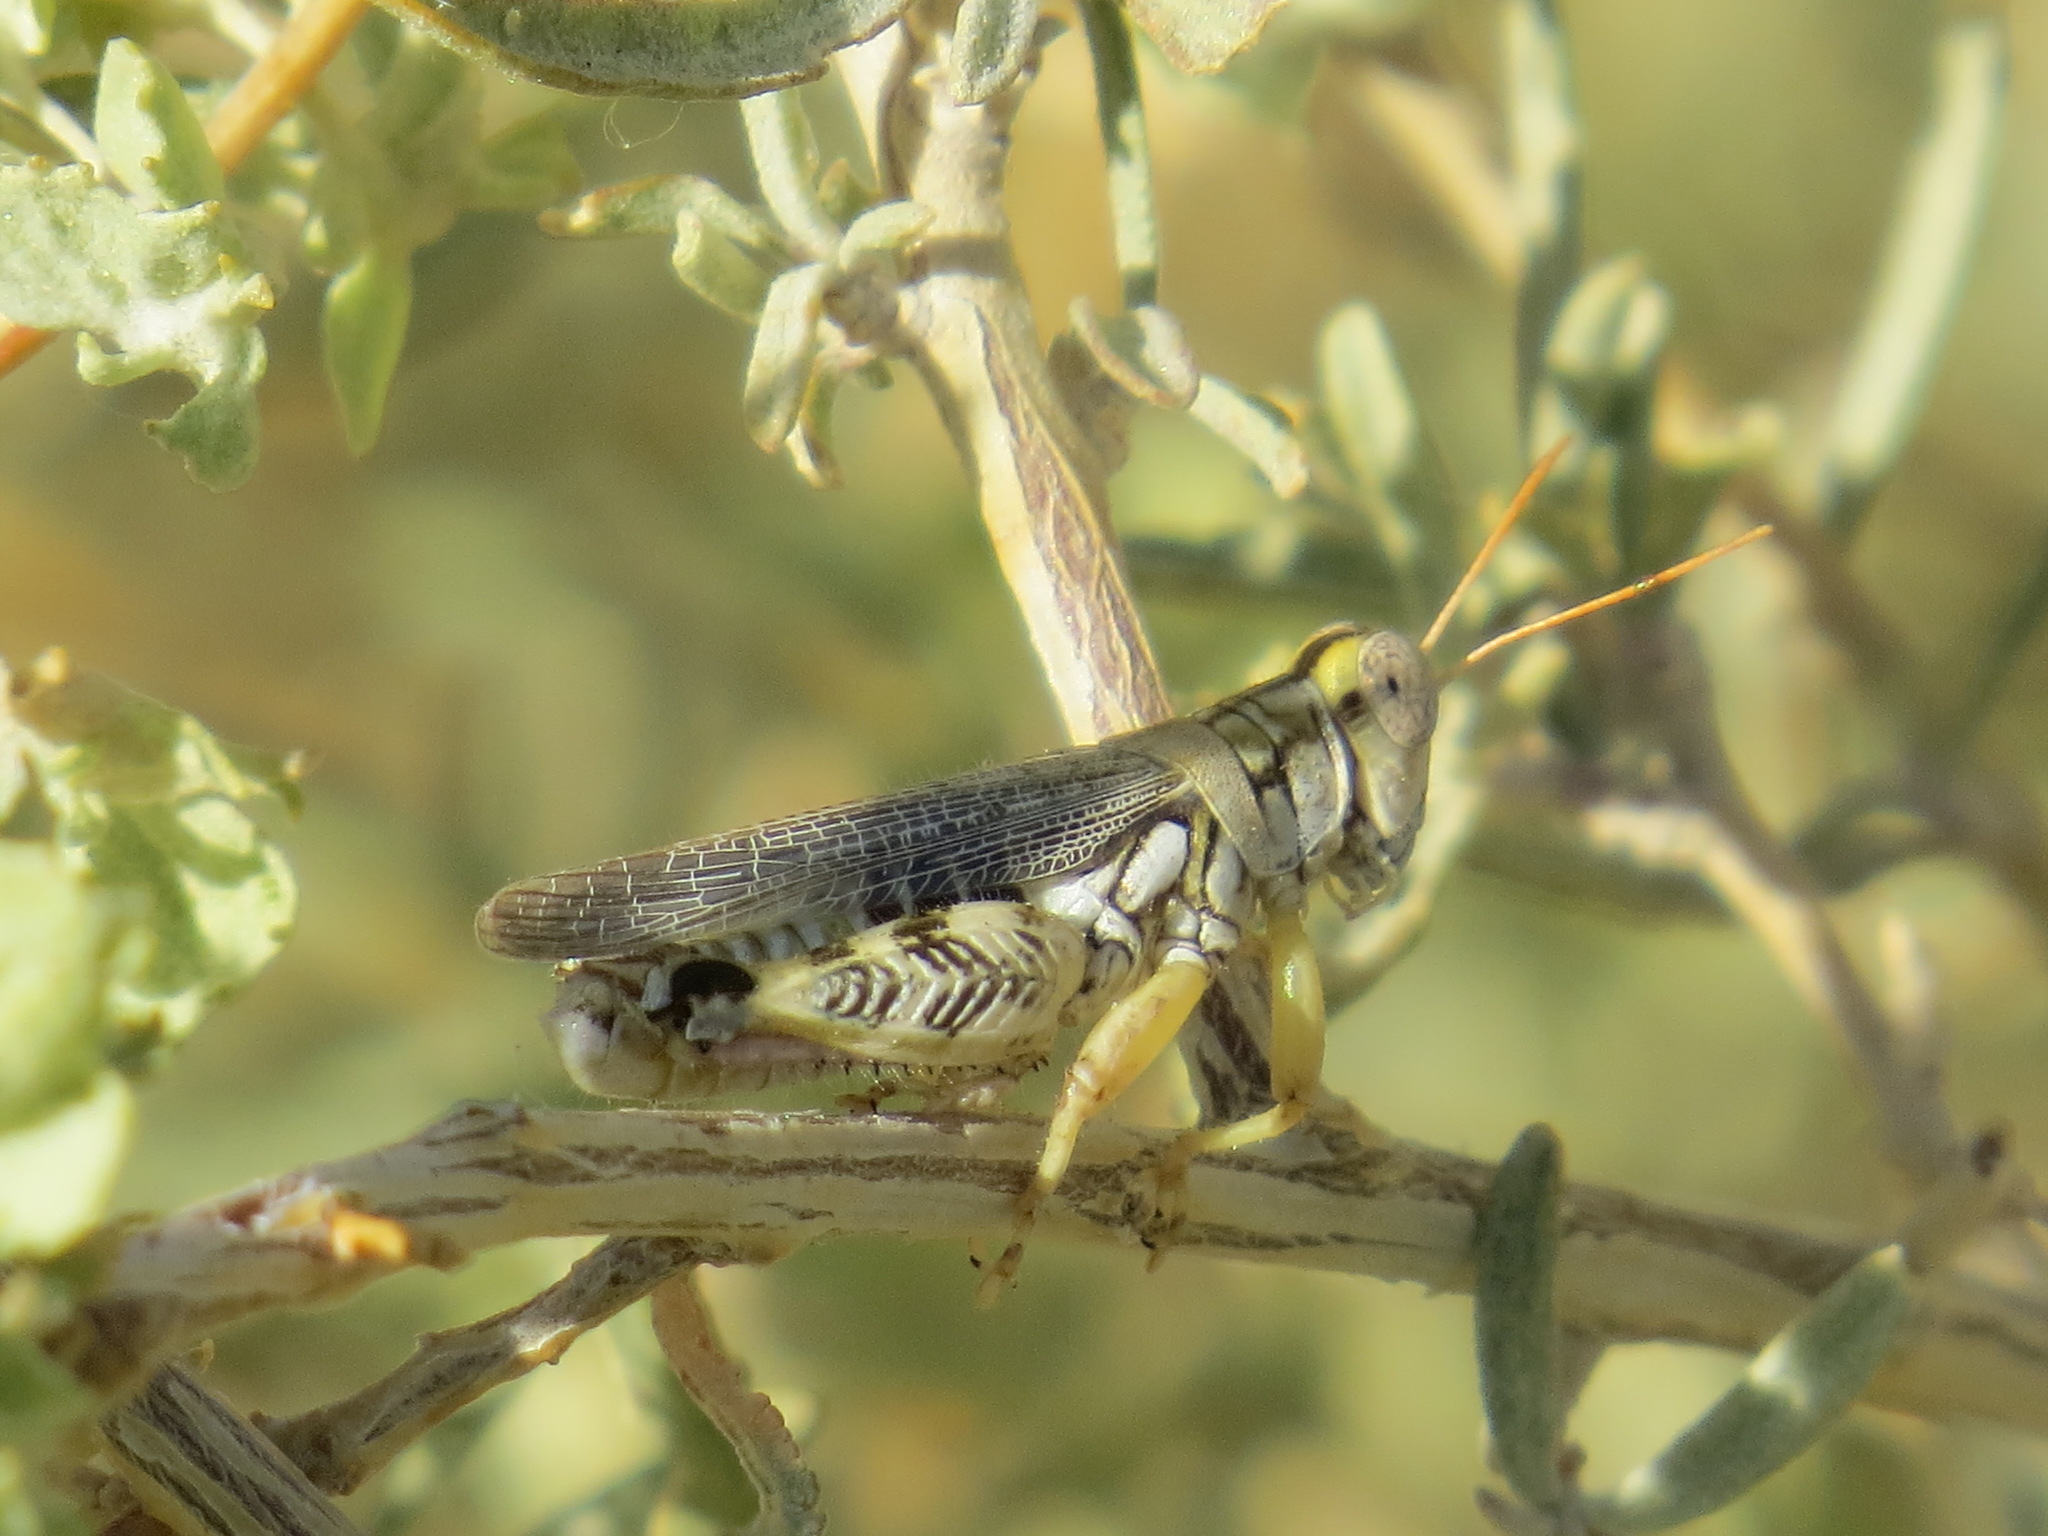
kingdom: Animalia
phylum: Arthropoda
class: Insecta
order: Orthoptera
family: Acrididae
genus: Aeoloplides
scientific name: Aeoloplides tenuipennis
